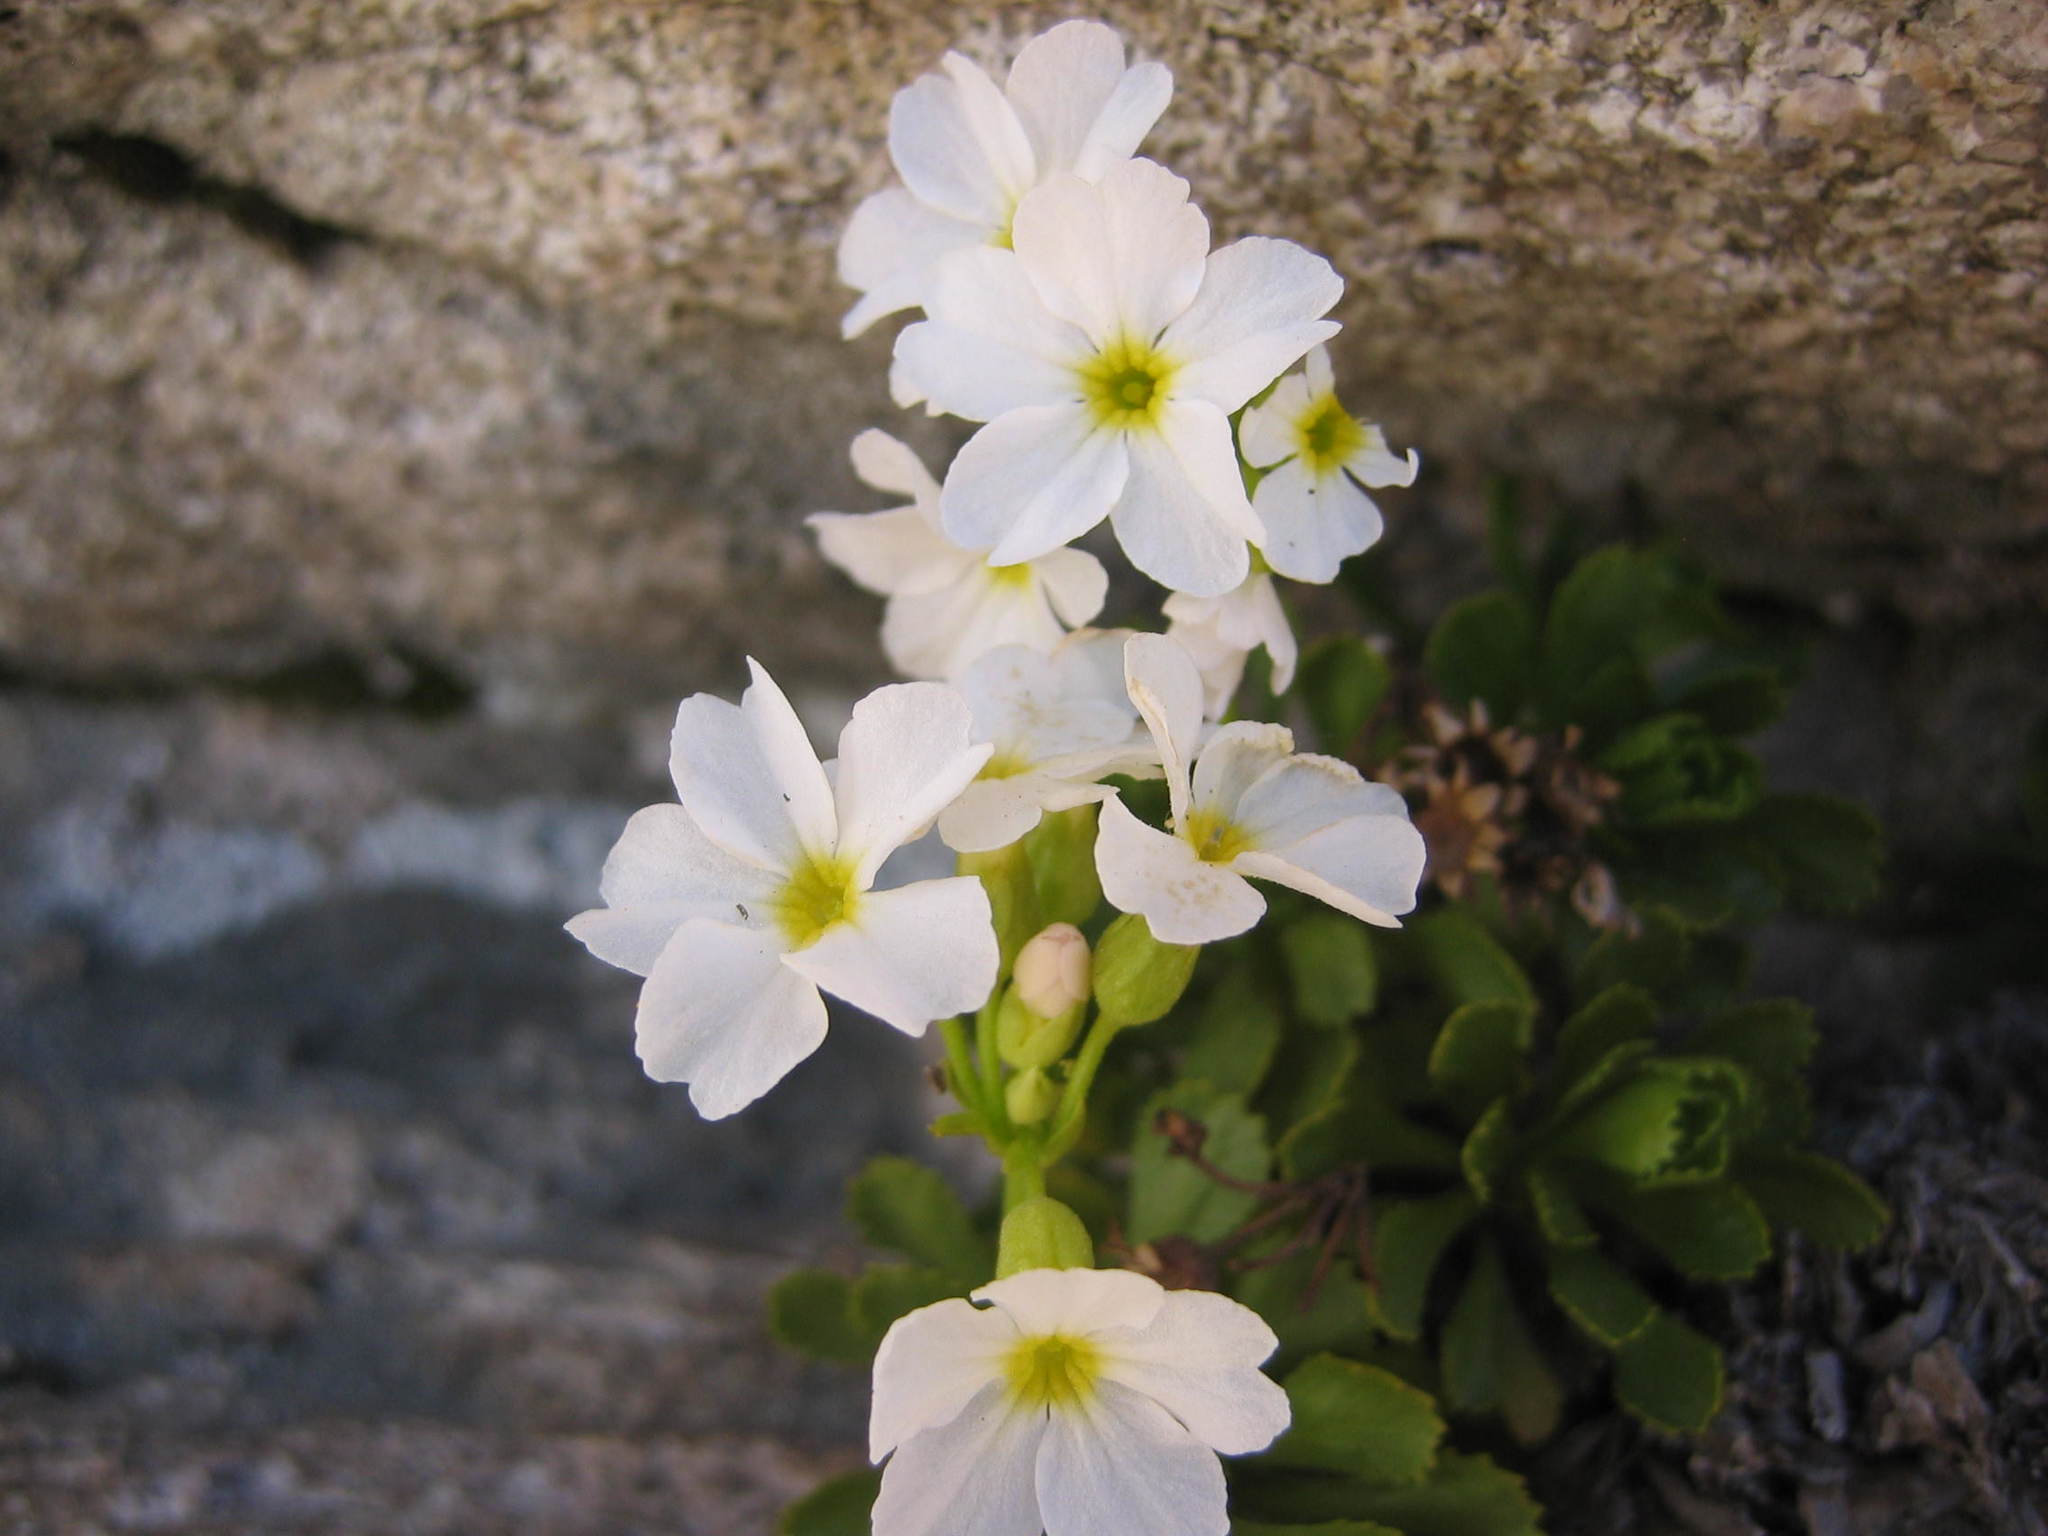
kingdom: Plantae
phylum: Tracheophyta
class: Magnoliopsida
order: Ericales
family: Primulaceae
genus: Primula
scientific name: Primula suffrutescens
